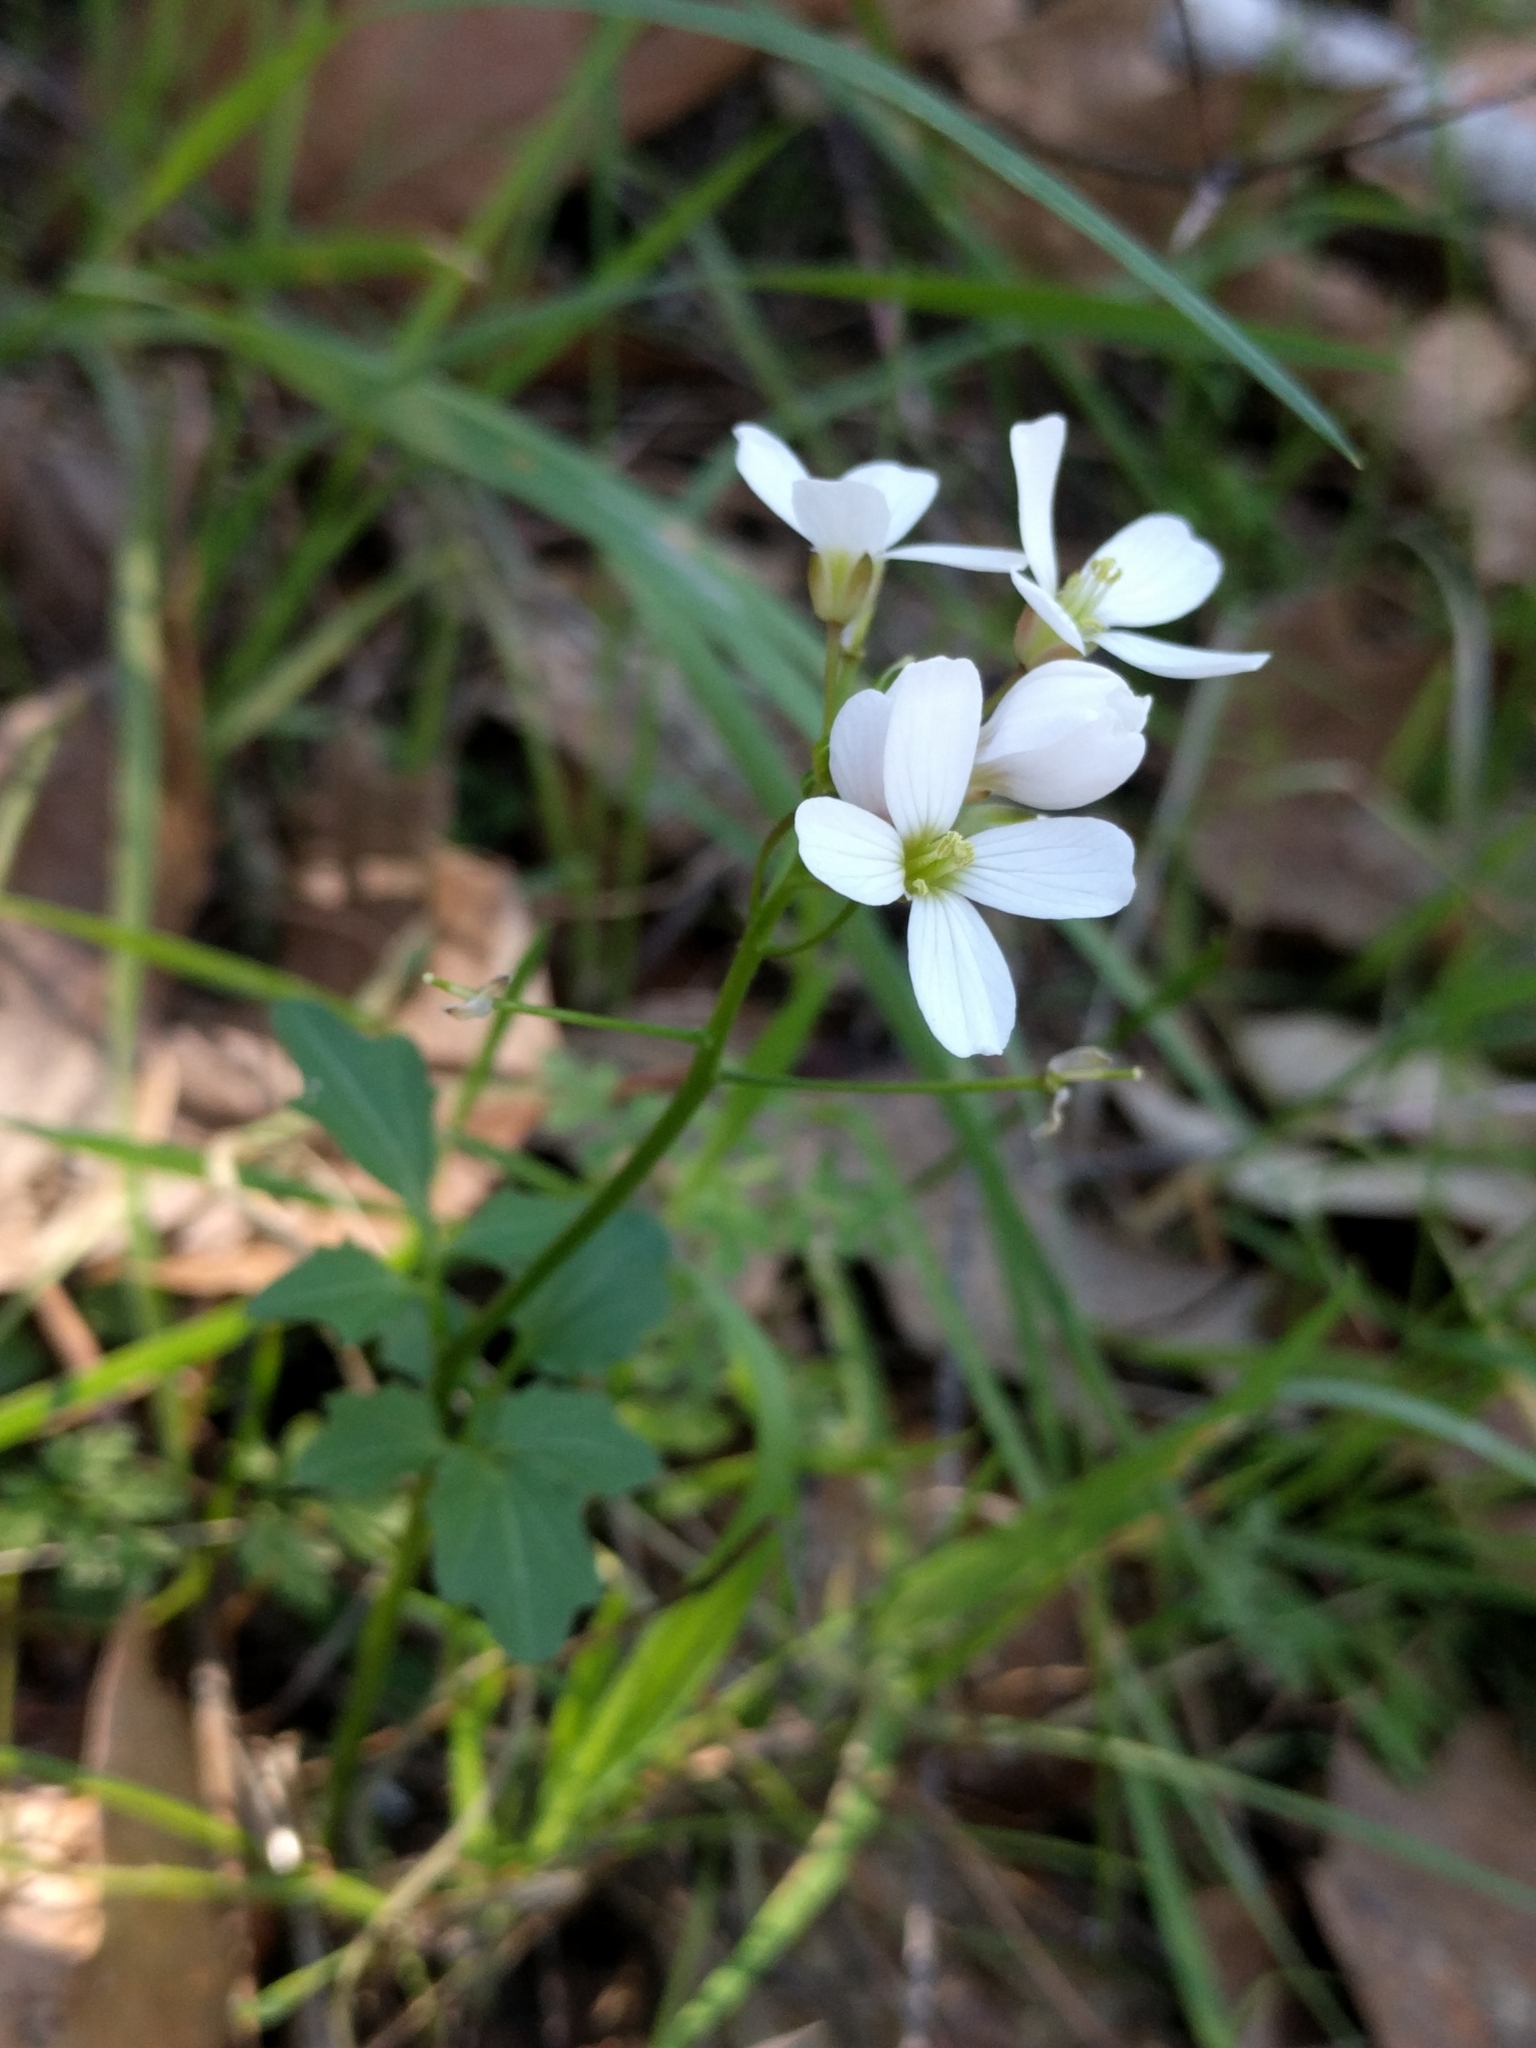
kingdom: Plantae
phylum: Tracheophyta
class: Magnoliopsida
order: Brassicales
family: Brassicaceae
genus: Cardamine
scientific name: Cardamine californica
